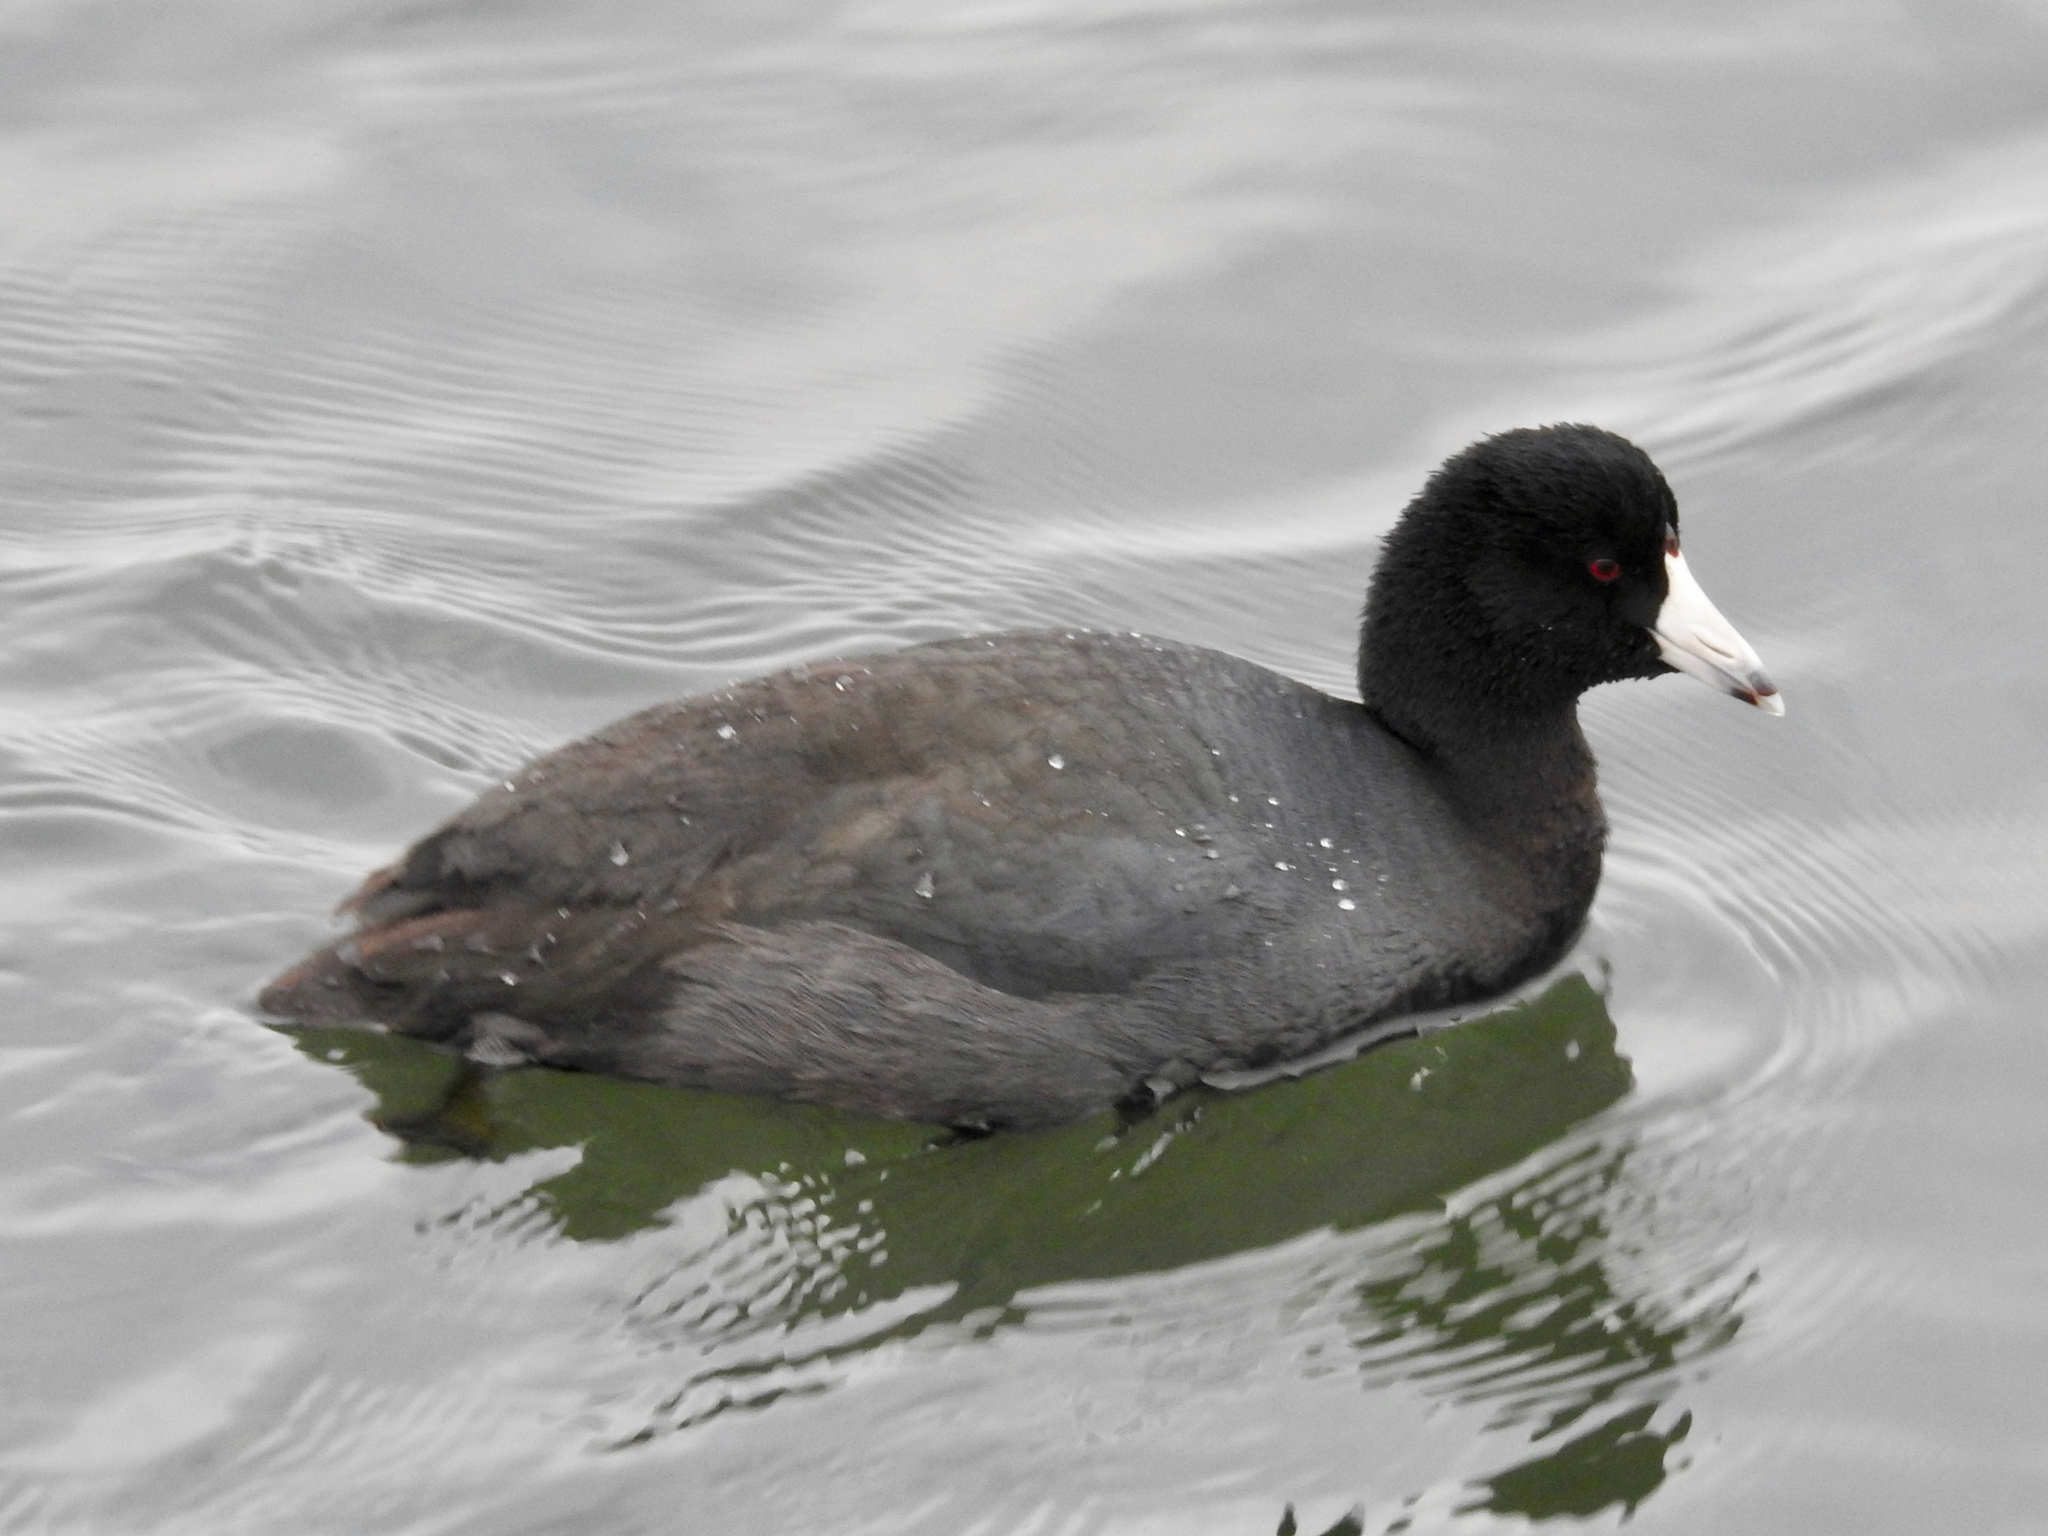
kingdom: Animalia
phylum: Chordata
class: Aves
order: Gruiformes
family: Rallidae
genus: Fulica
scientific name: Fulica americana
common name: American coot
